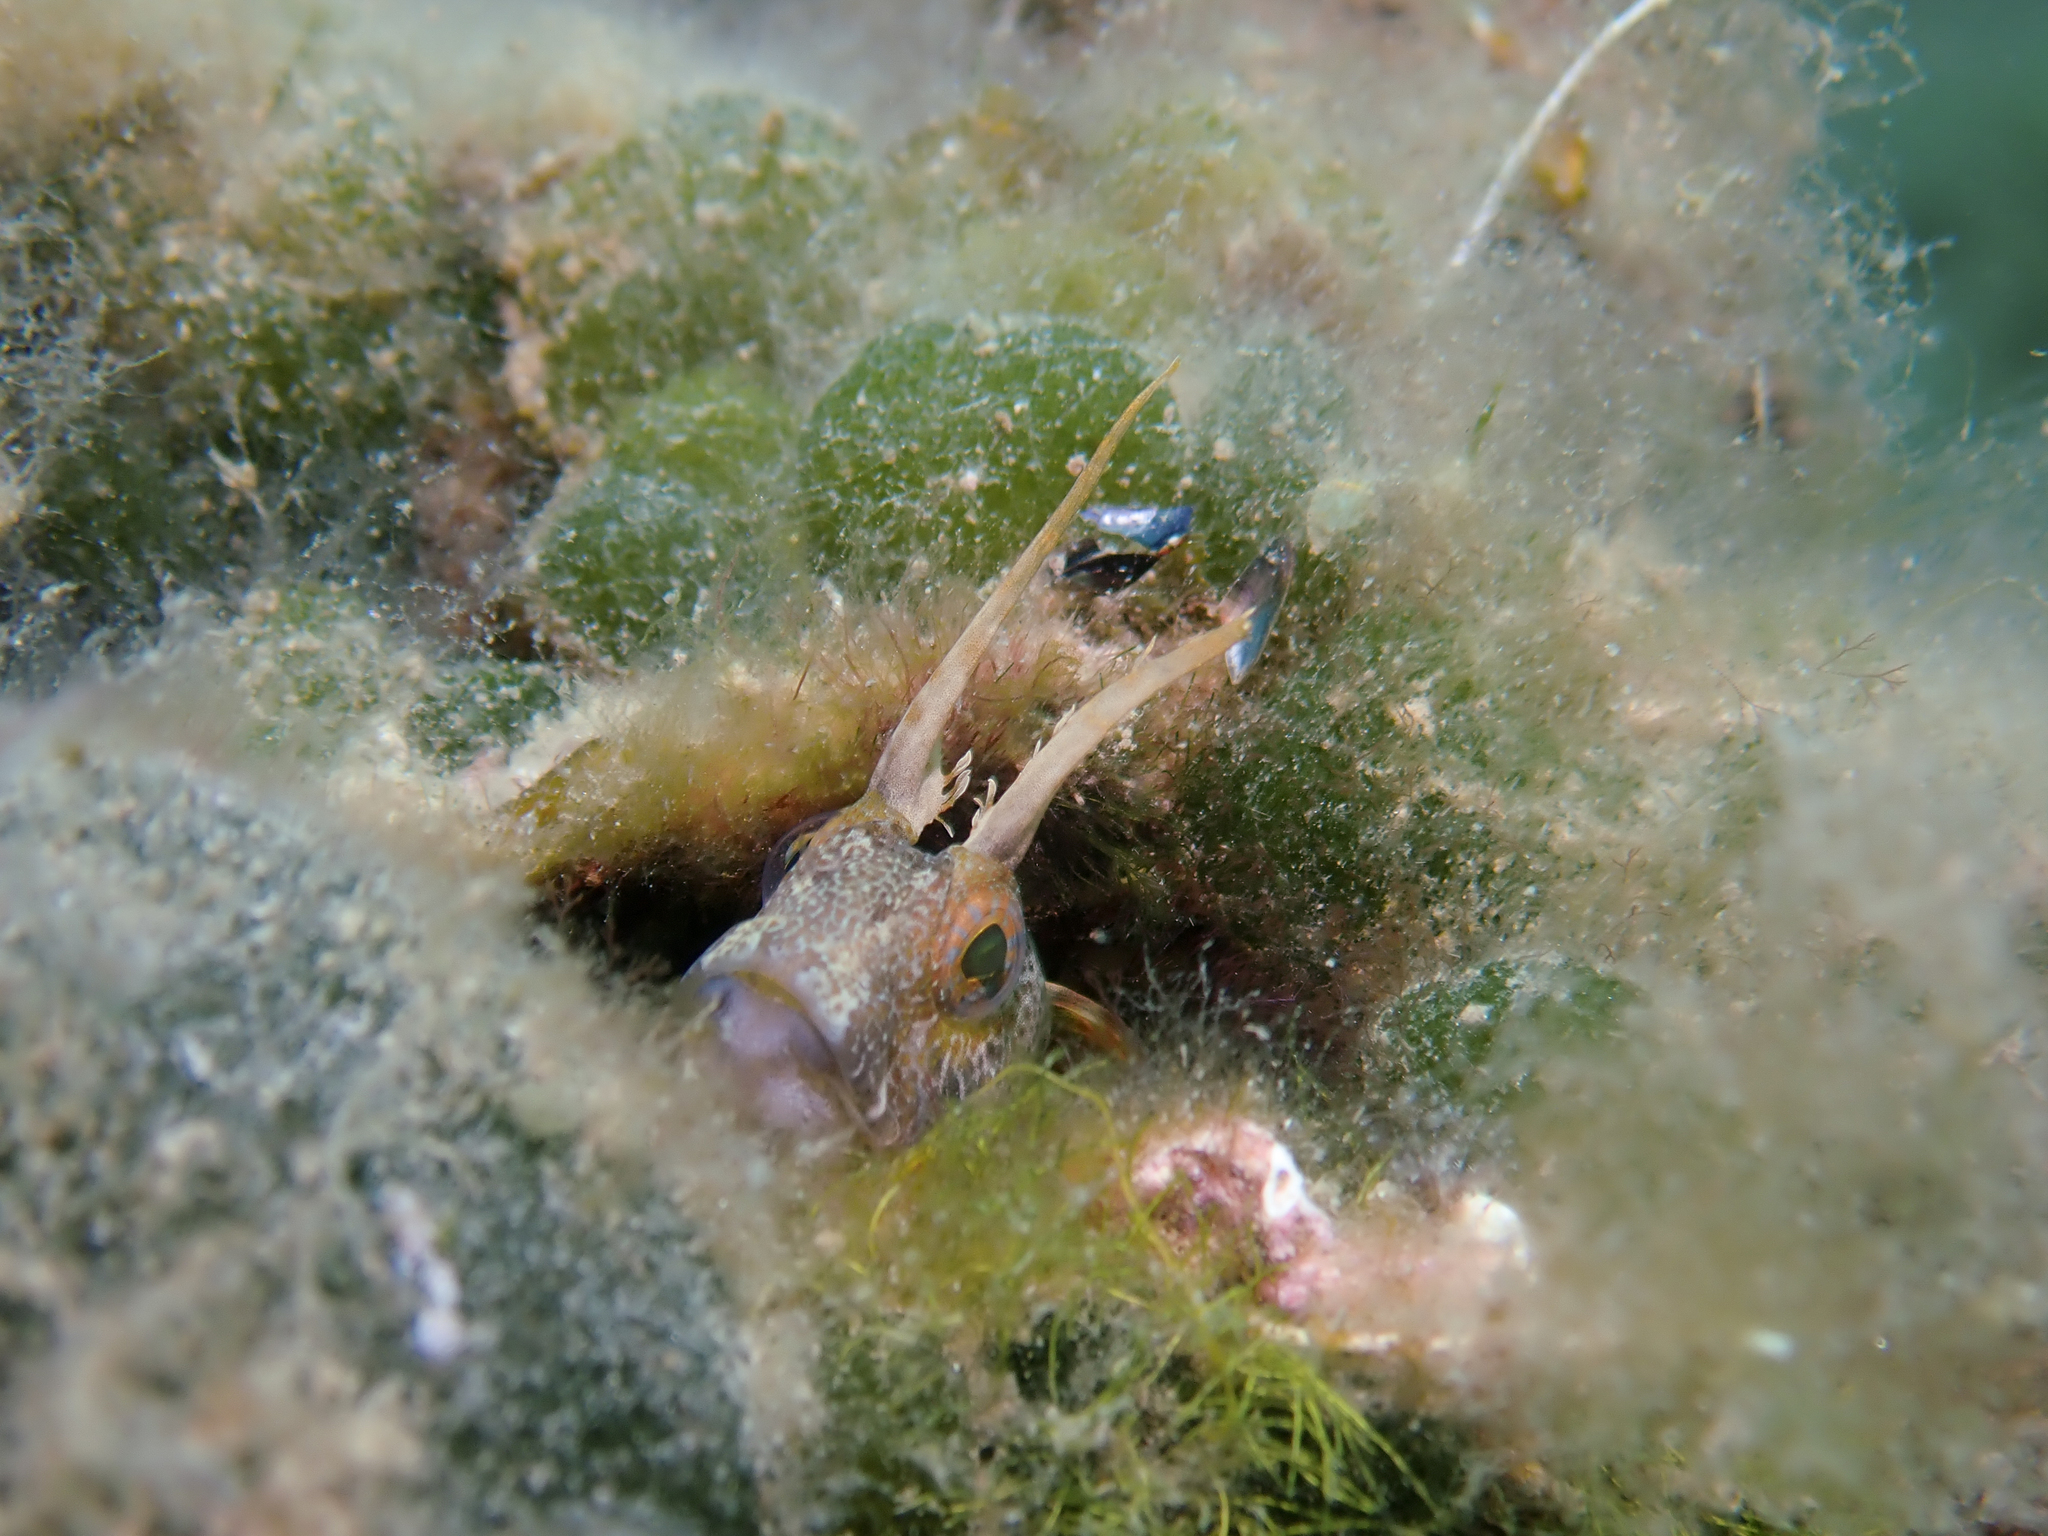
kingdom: Animalia
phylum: Chordata
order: Perciformes
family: Blenniidae
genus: Parablennius
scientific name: Parablennius tentacularis
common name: Tentacled blenny
